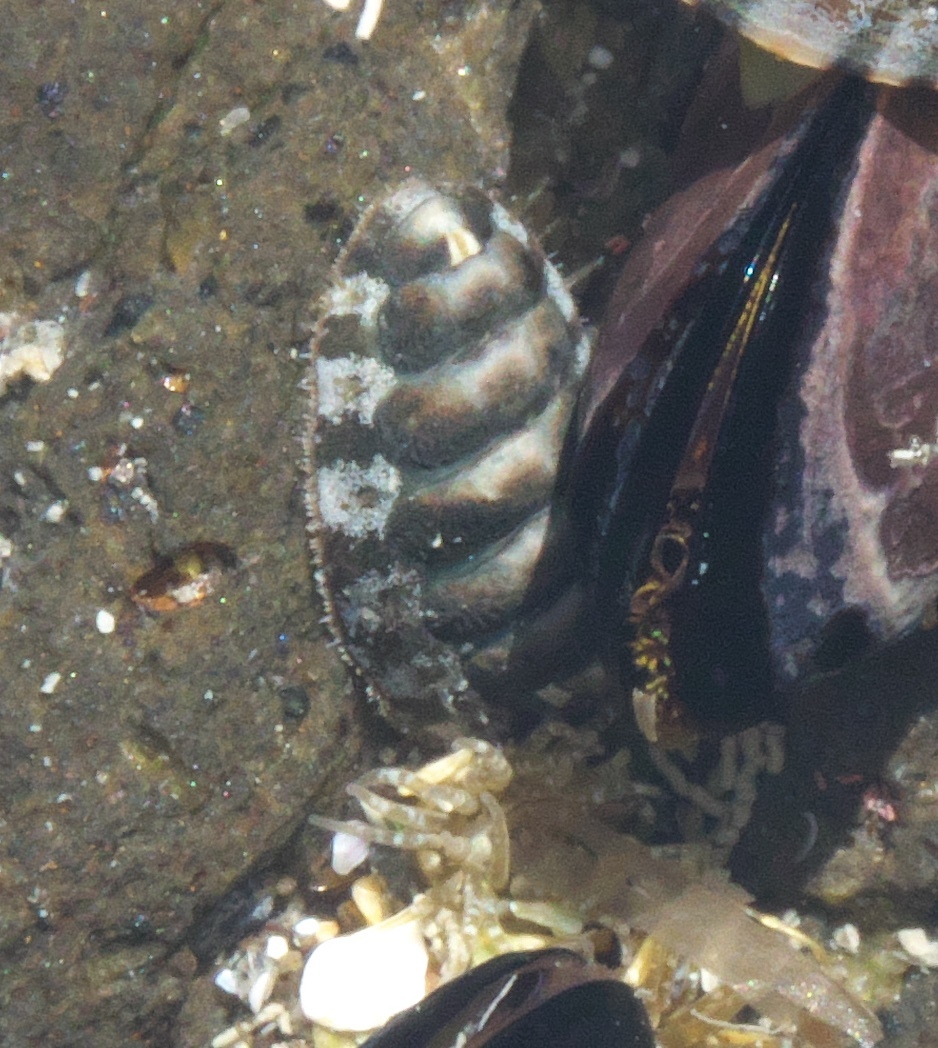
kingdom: Animalia
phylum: Mollusca
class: Polyplacophora
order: Chitonida
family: Mopaliidae
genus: Plaxiphora
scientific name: Plaxiphora caelata
